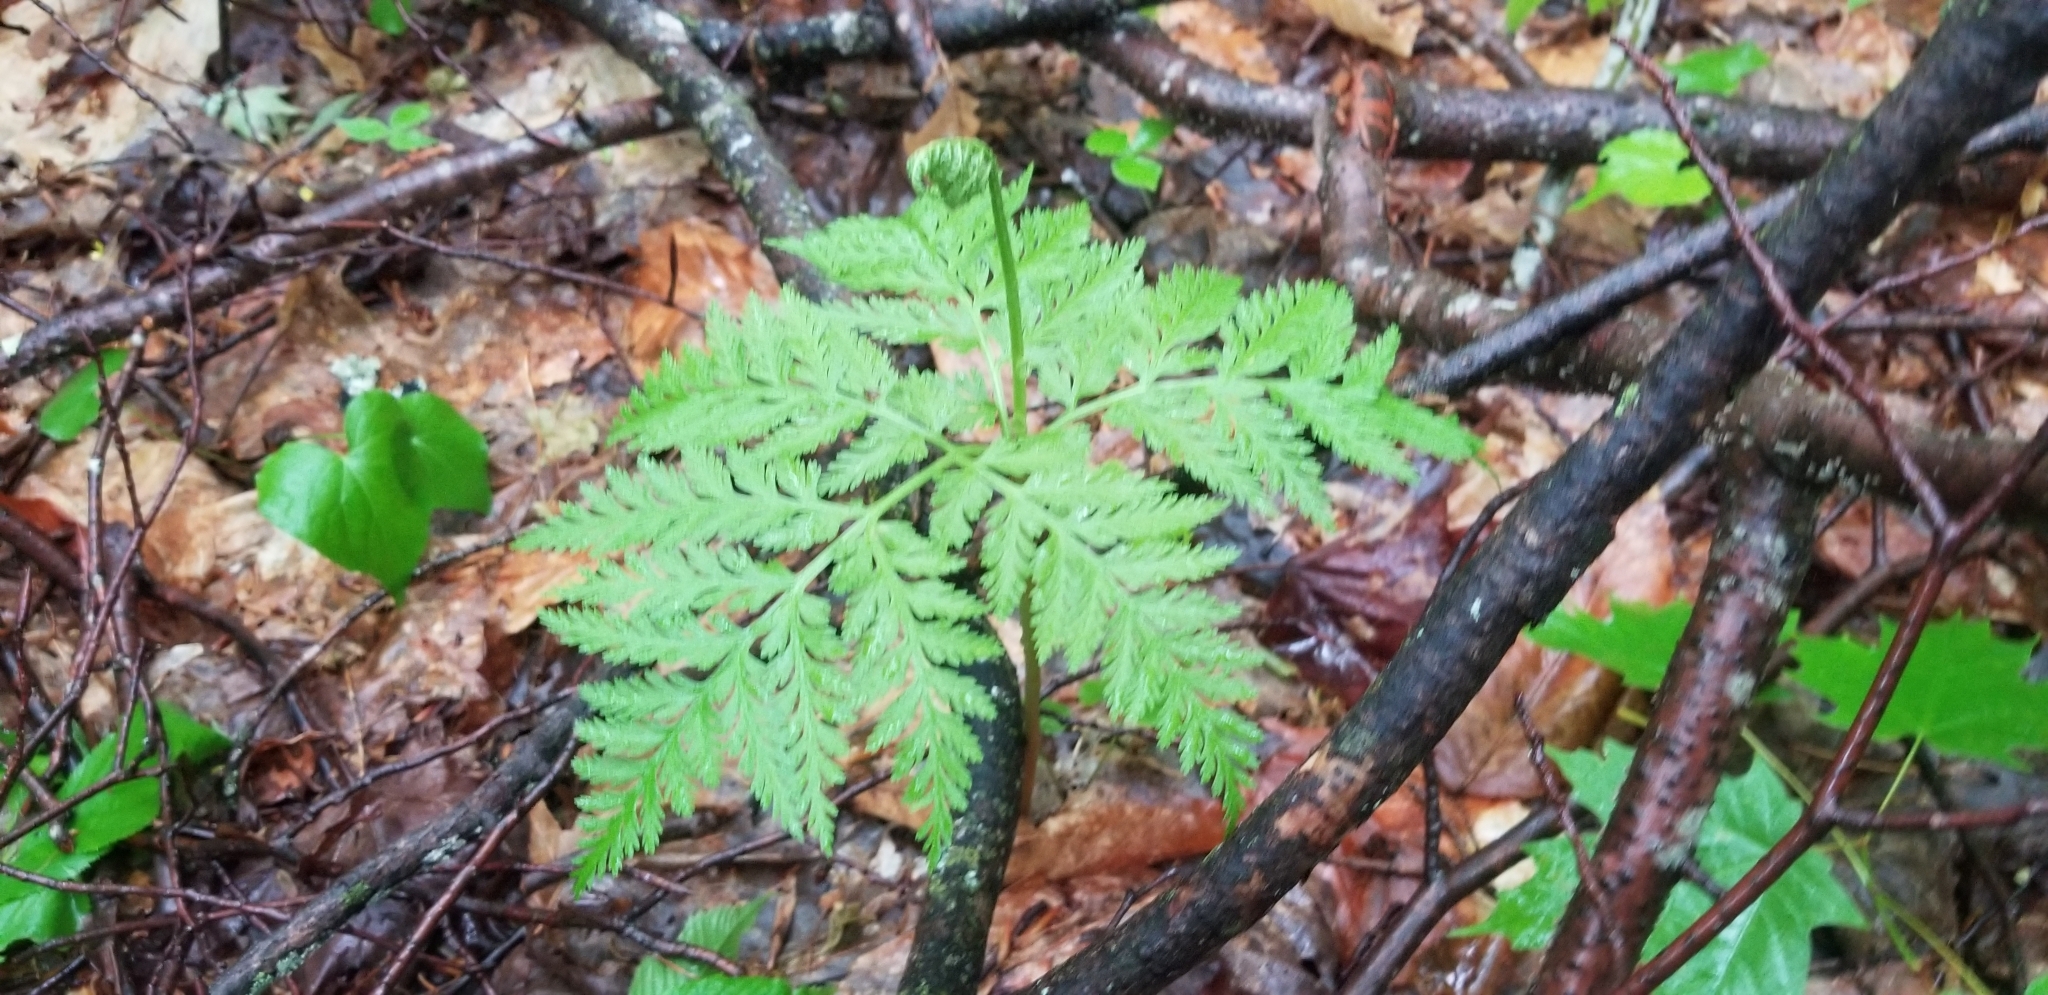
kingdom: Plantae
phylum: Tracheophyta
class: Polypodiopsida
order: Ophioglossales
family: Ophioglossaceae
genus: Botrypus
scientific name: Botrypus virginianus
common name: Common grapefern
